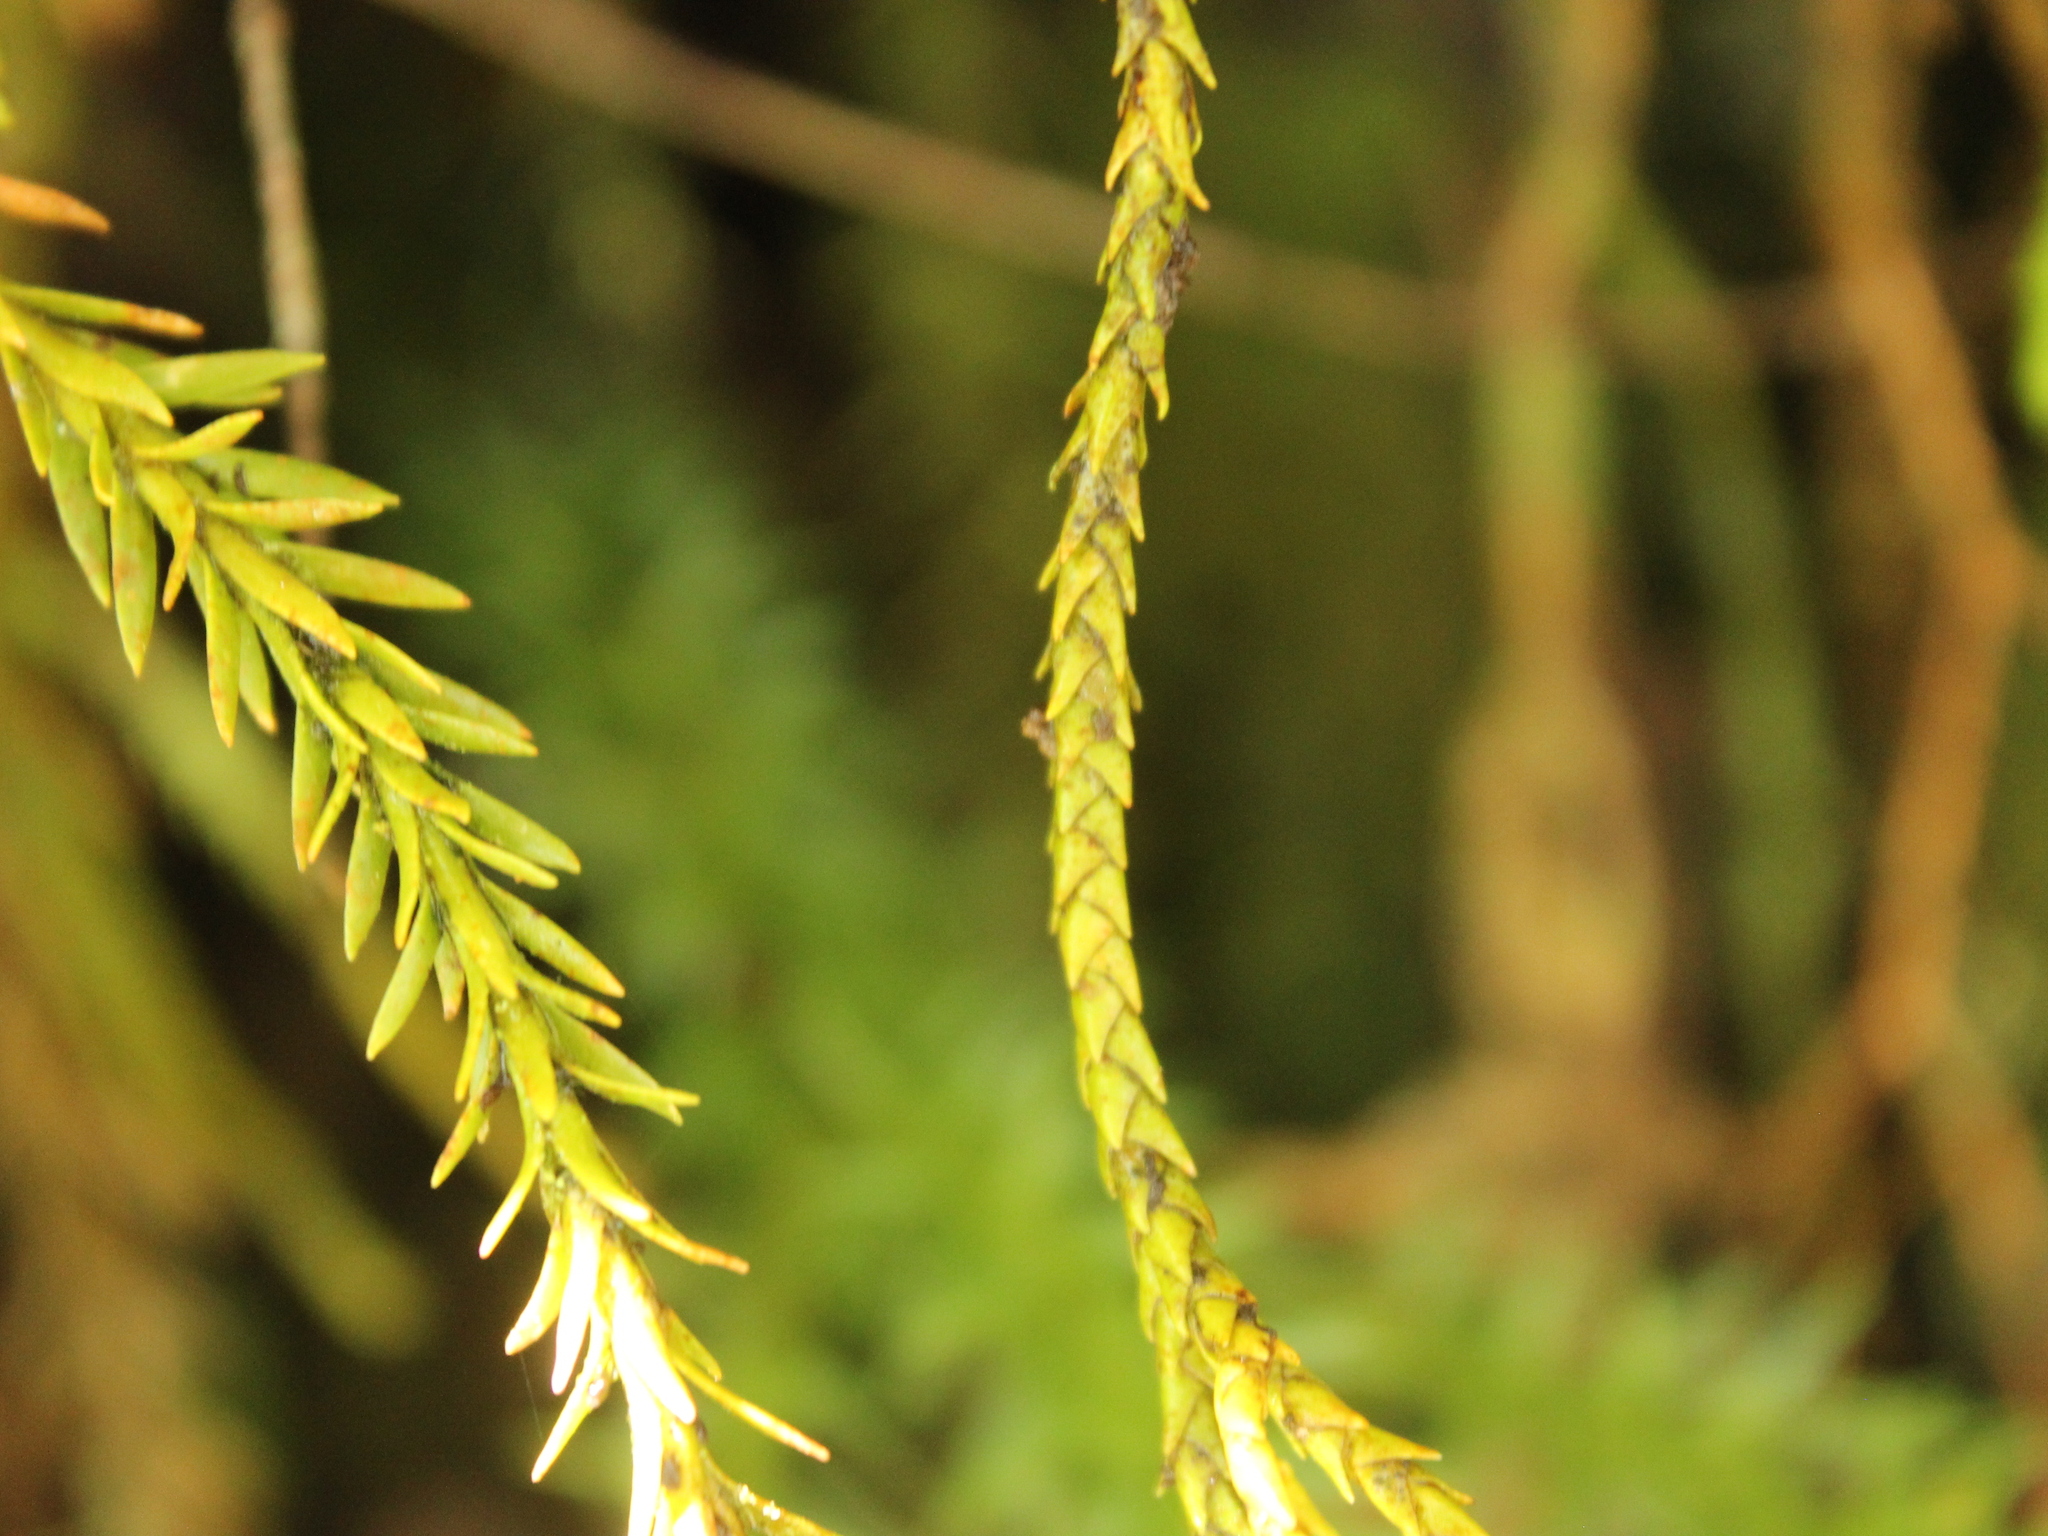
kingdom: Plantae
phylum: Tracheophyta
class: Lycopodiopsida
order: Lycopodiales
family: Lycopodiaceae
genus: Phlegmariurus
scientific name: Phlegmariurus varius
